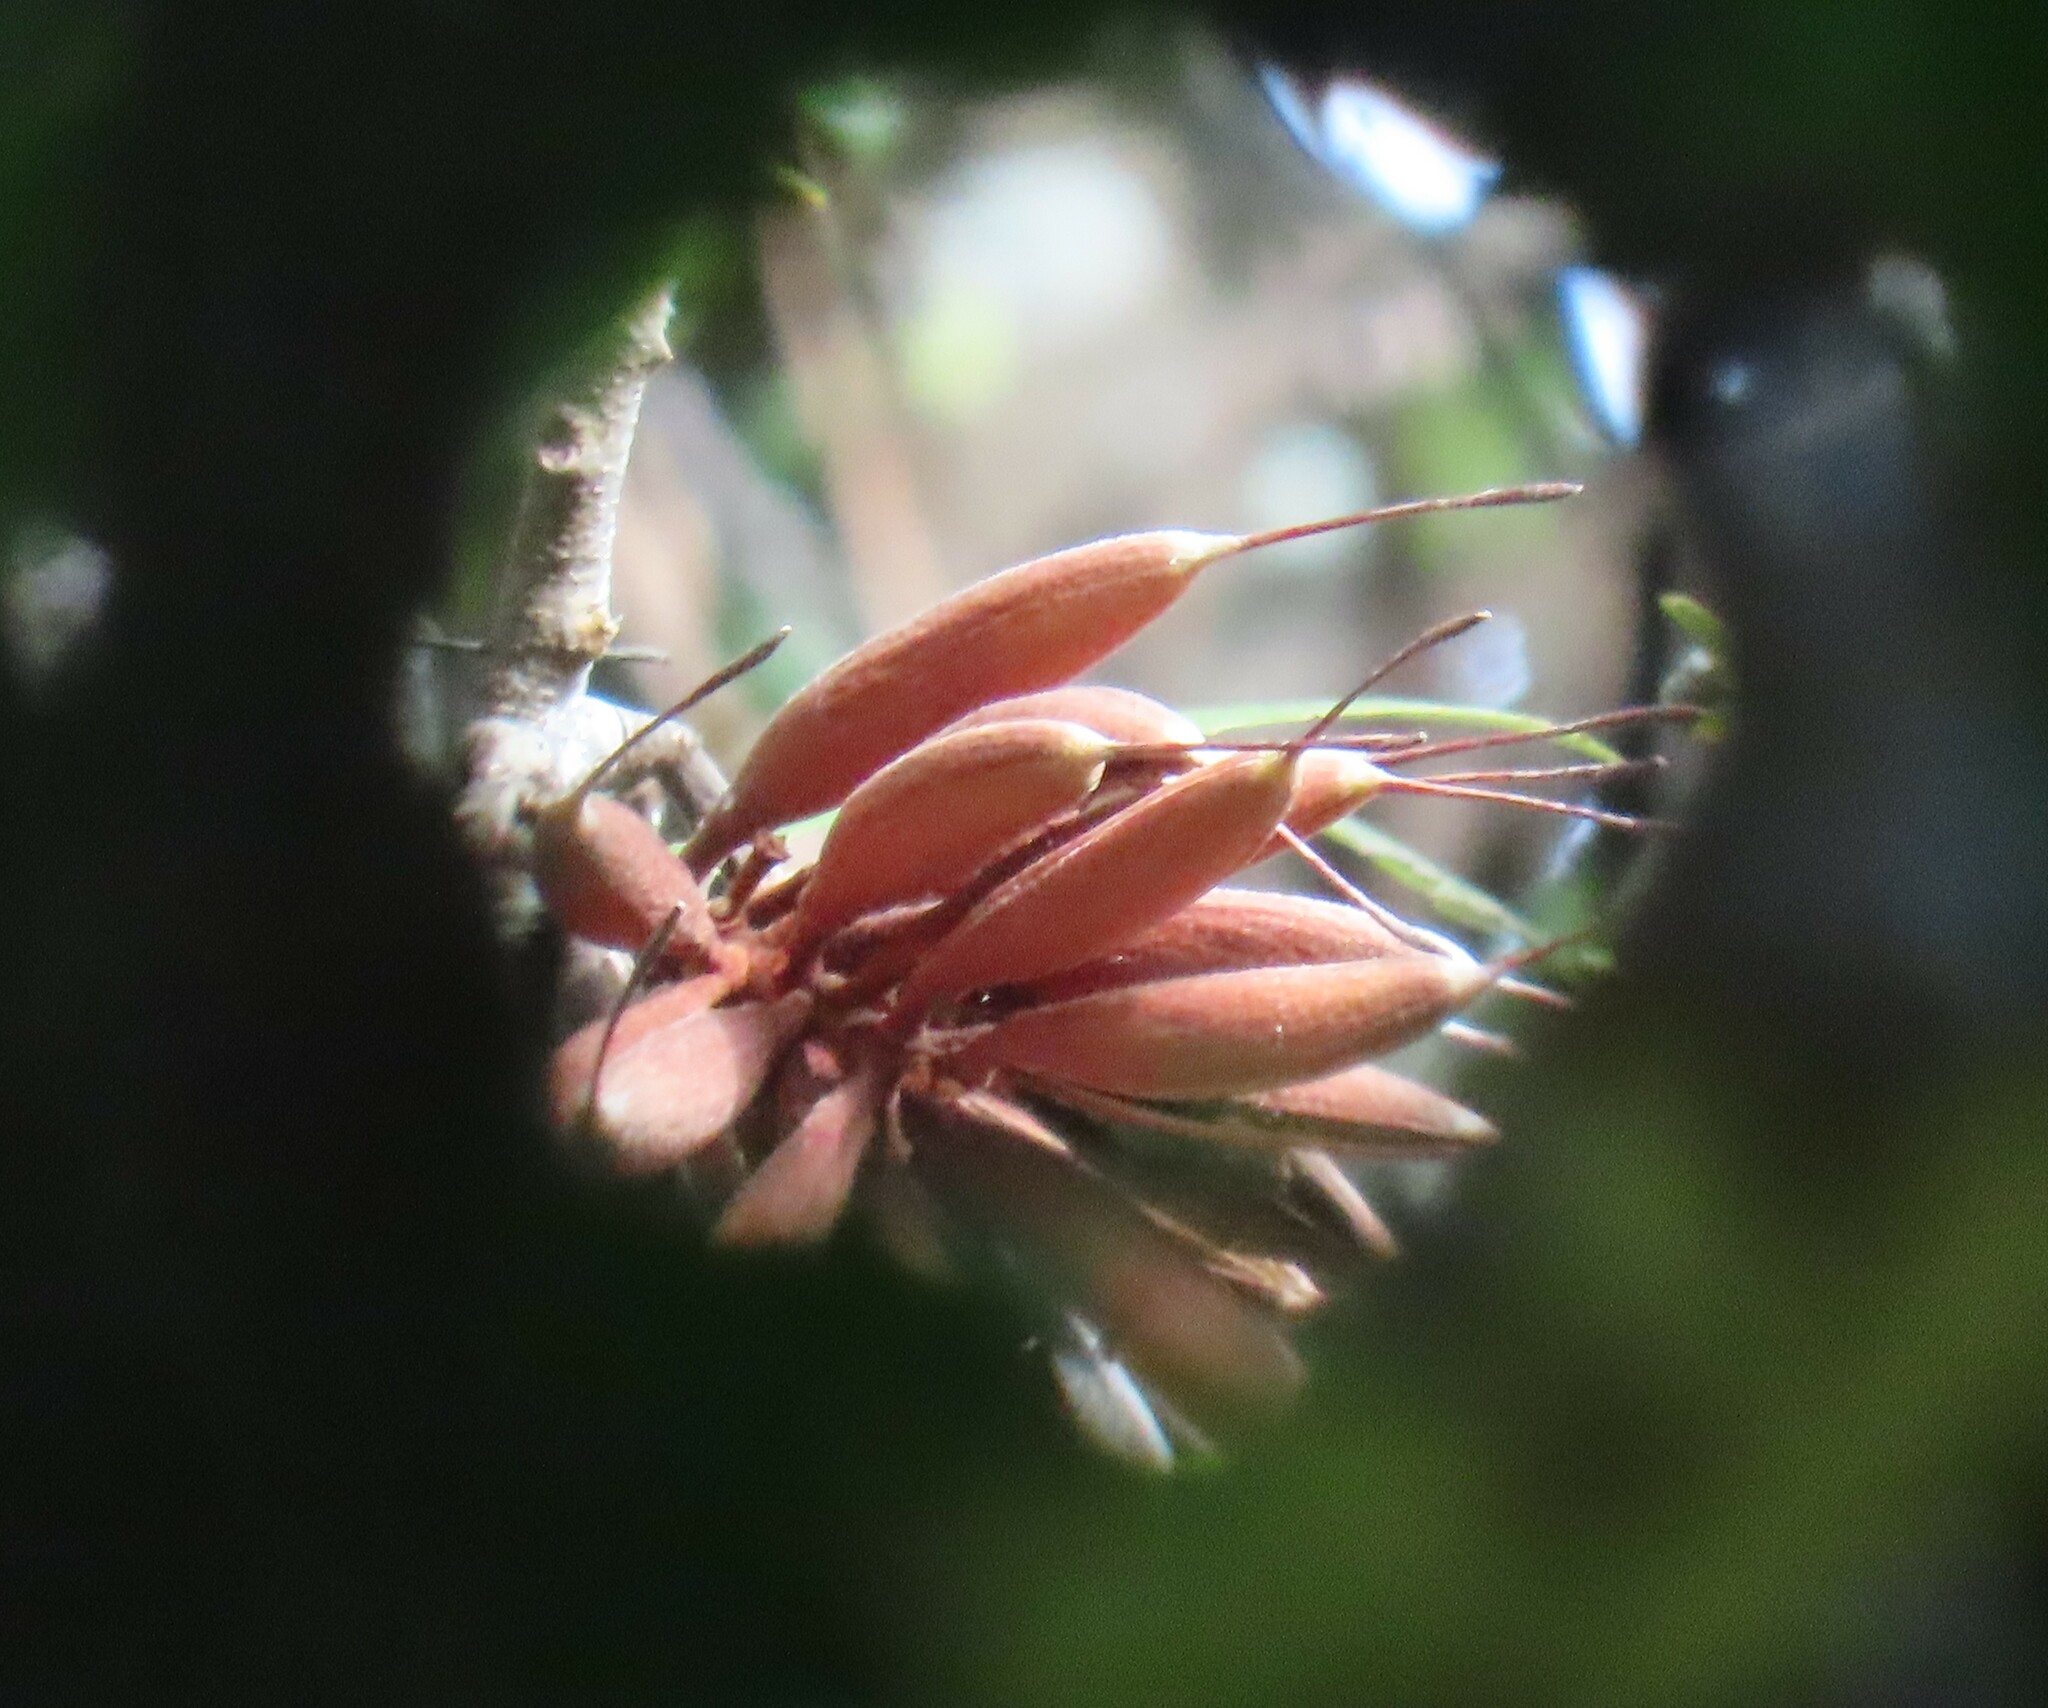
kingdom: Plantae
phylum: Tracheophyta
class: Magnoliopsida
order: Proteales
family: Proteaceae
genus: Knightia
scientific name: Knightia excelsa
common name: New zealand-honeysuckle
